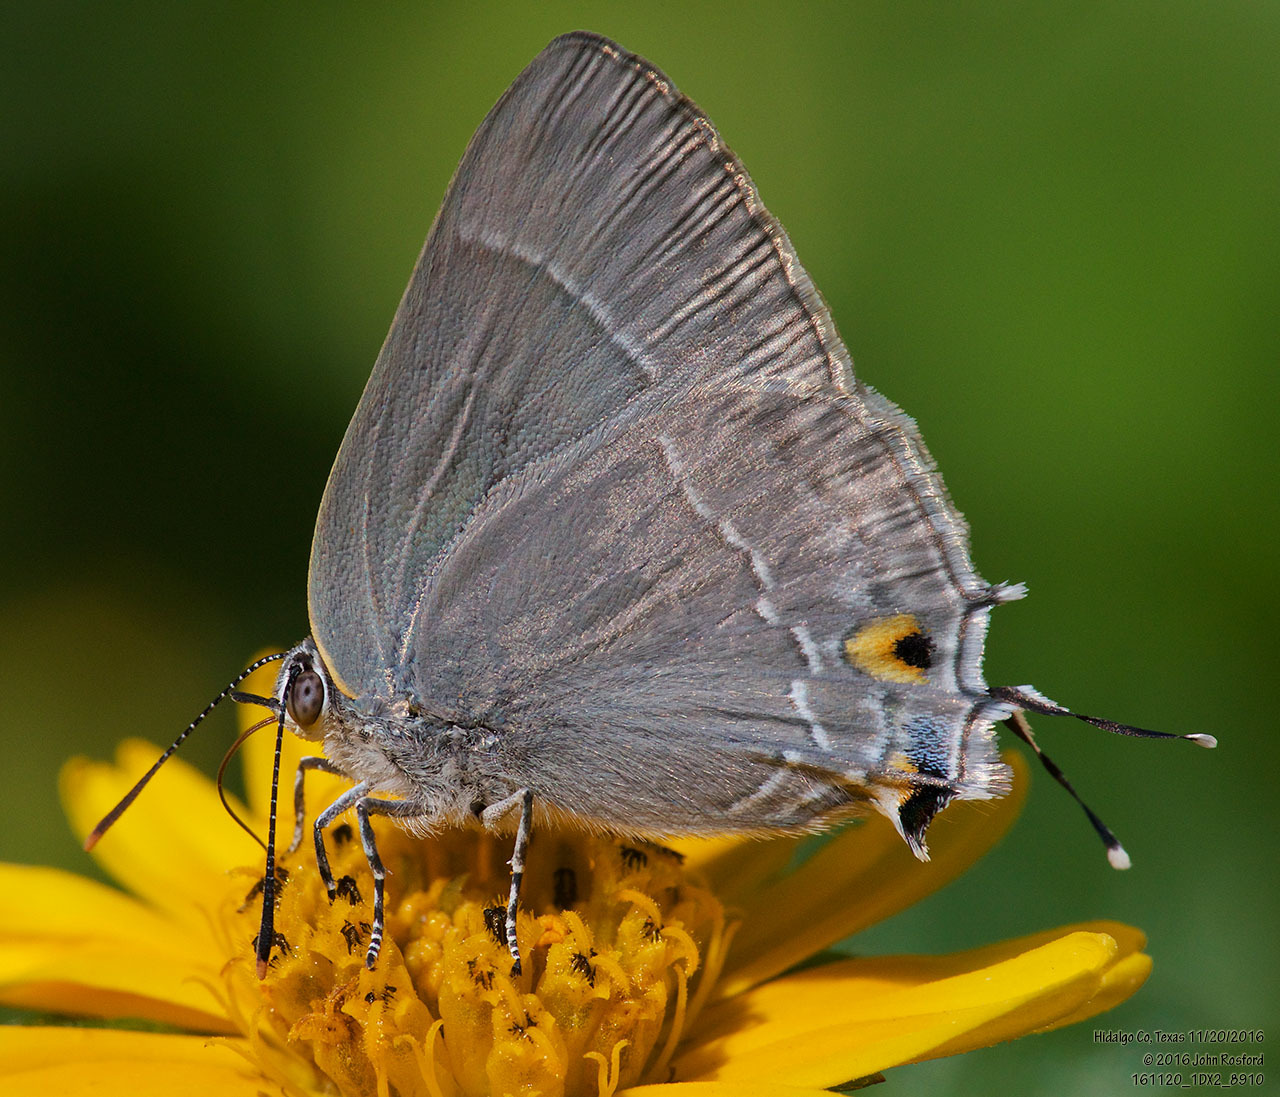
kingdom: Animalia
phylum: Arthropoda
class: Insecta
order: Lepidoptera
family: Lycaenidae
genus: Thecla
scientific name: Thecla marius
